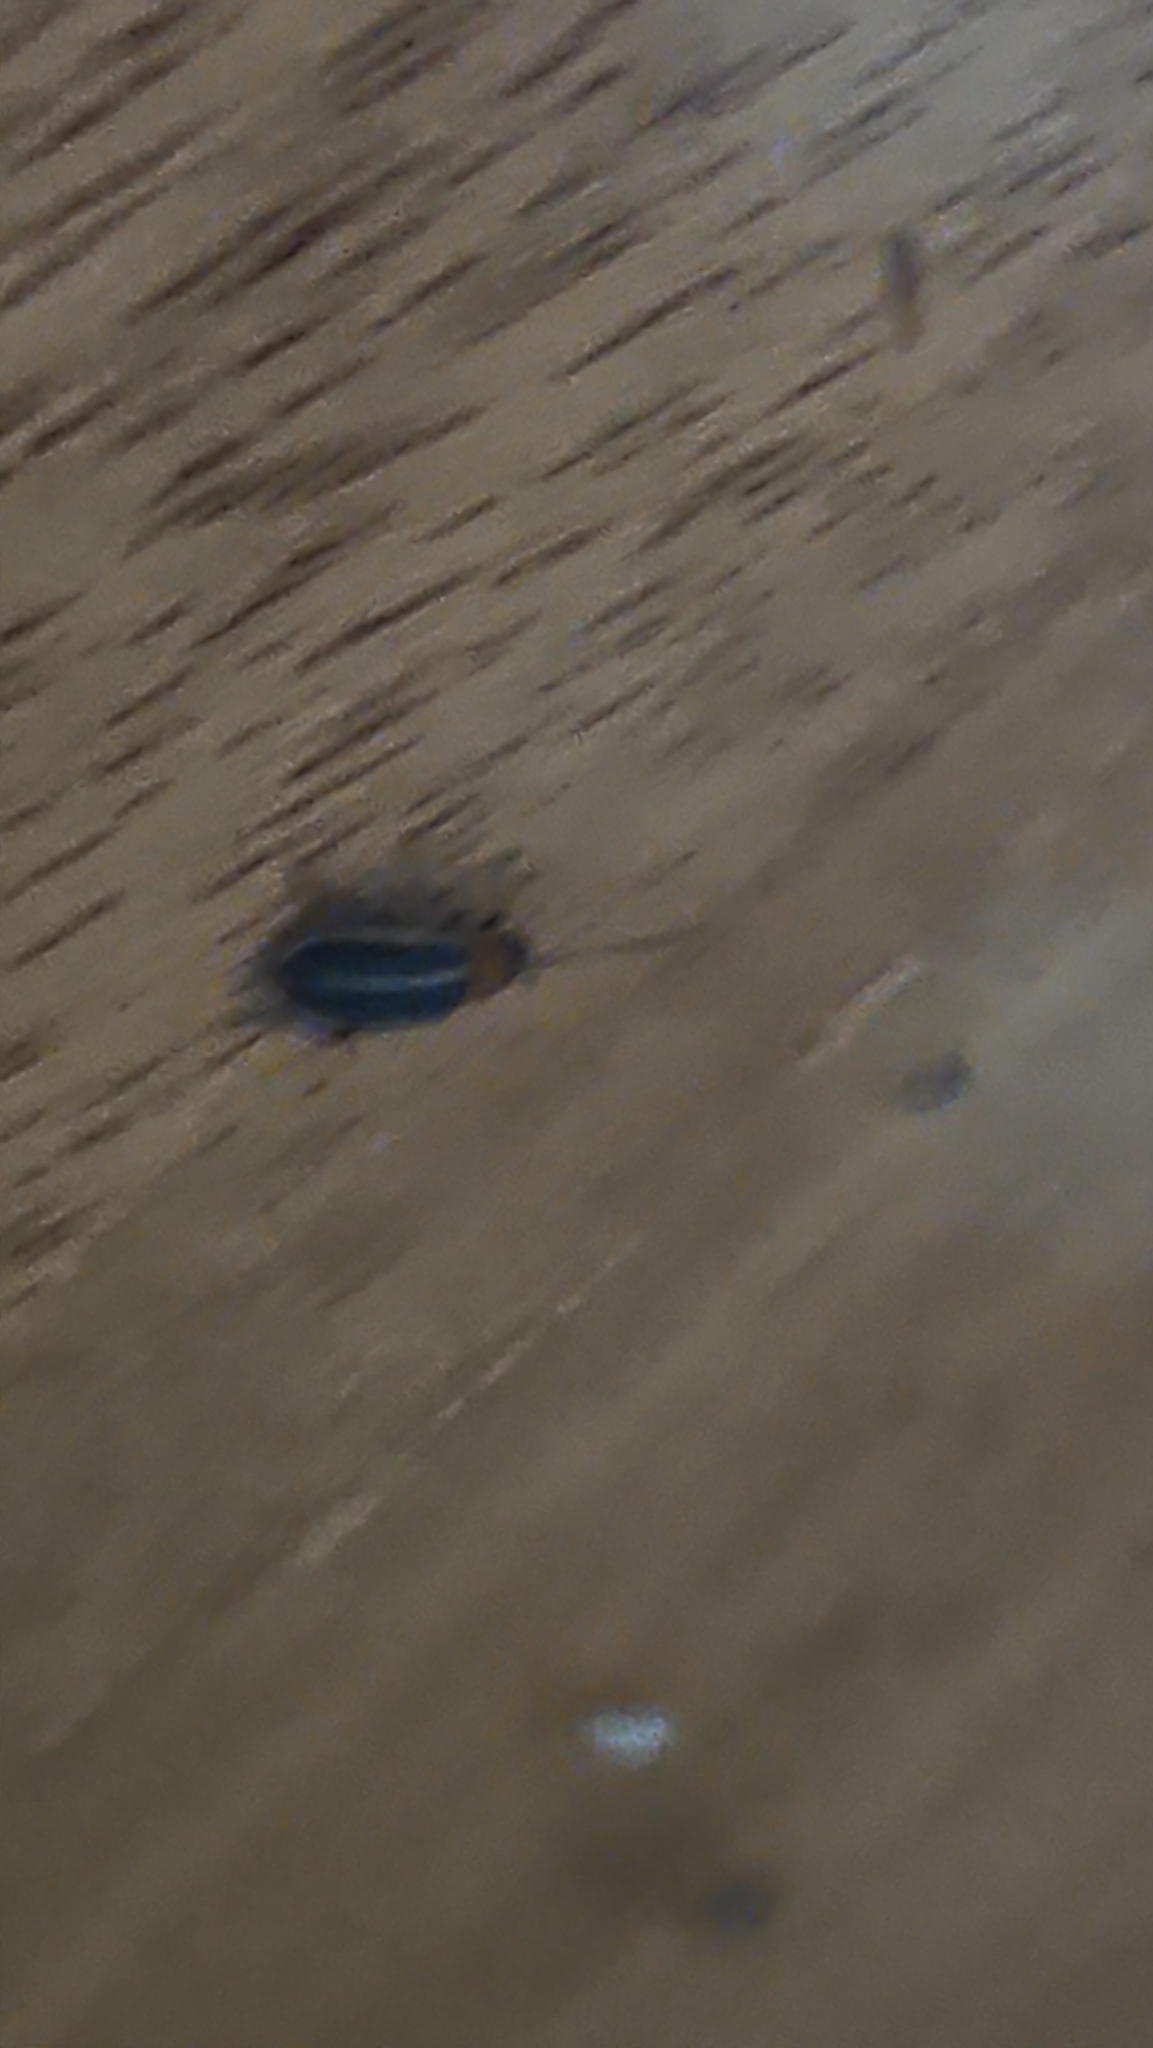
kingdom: Animalia
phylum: Arthropoda
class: Insecta
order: Coleoptera
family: Chrysomelidae
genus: Disonycha
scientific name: Disonycha glabrata
